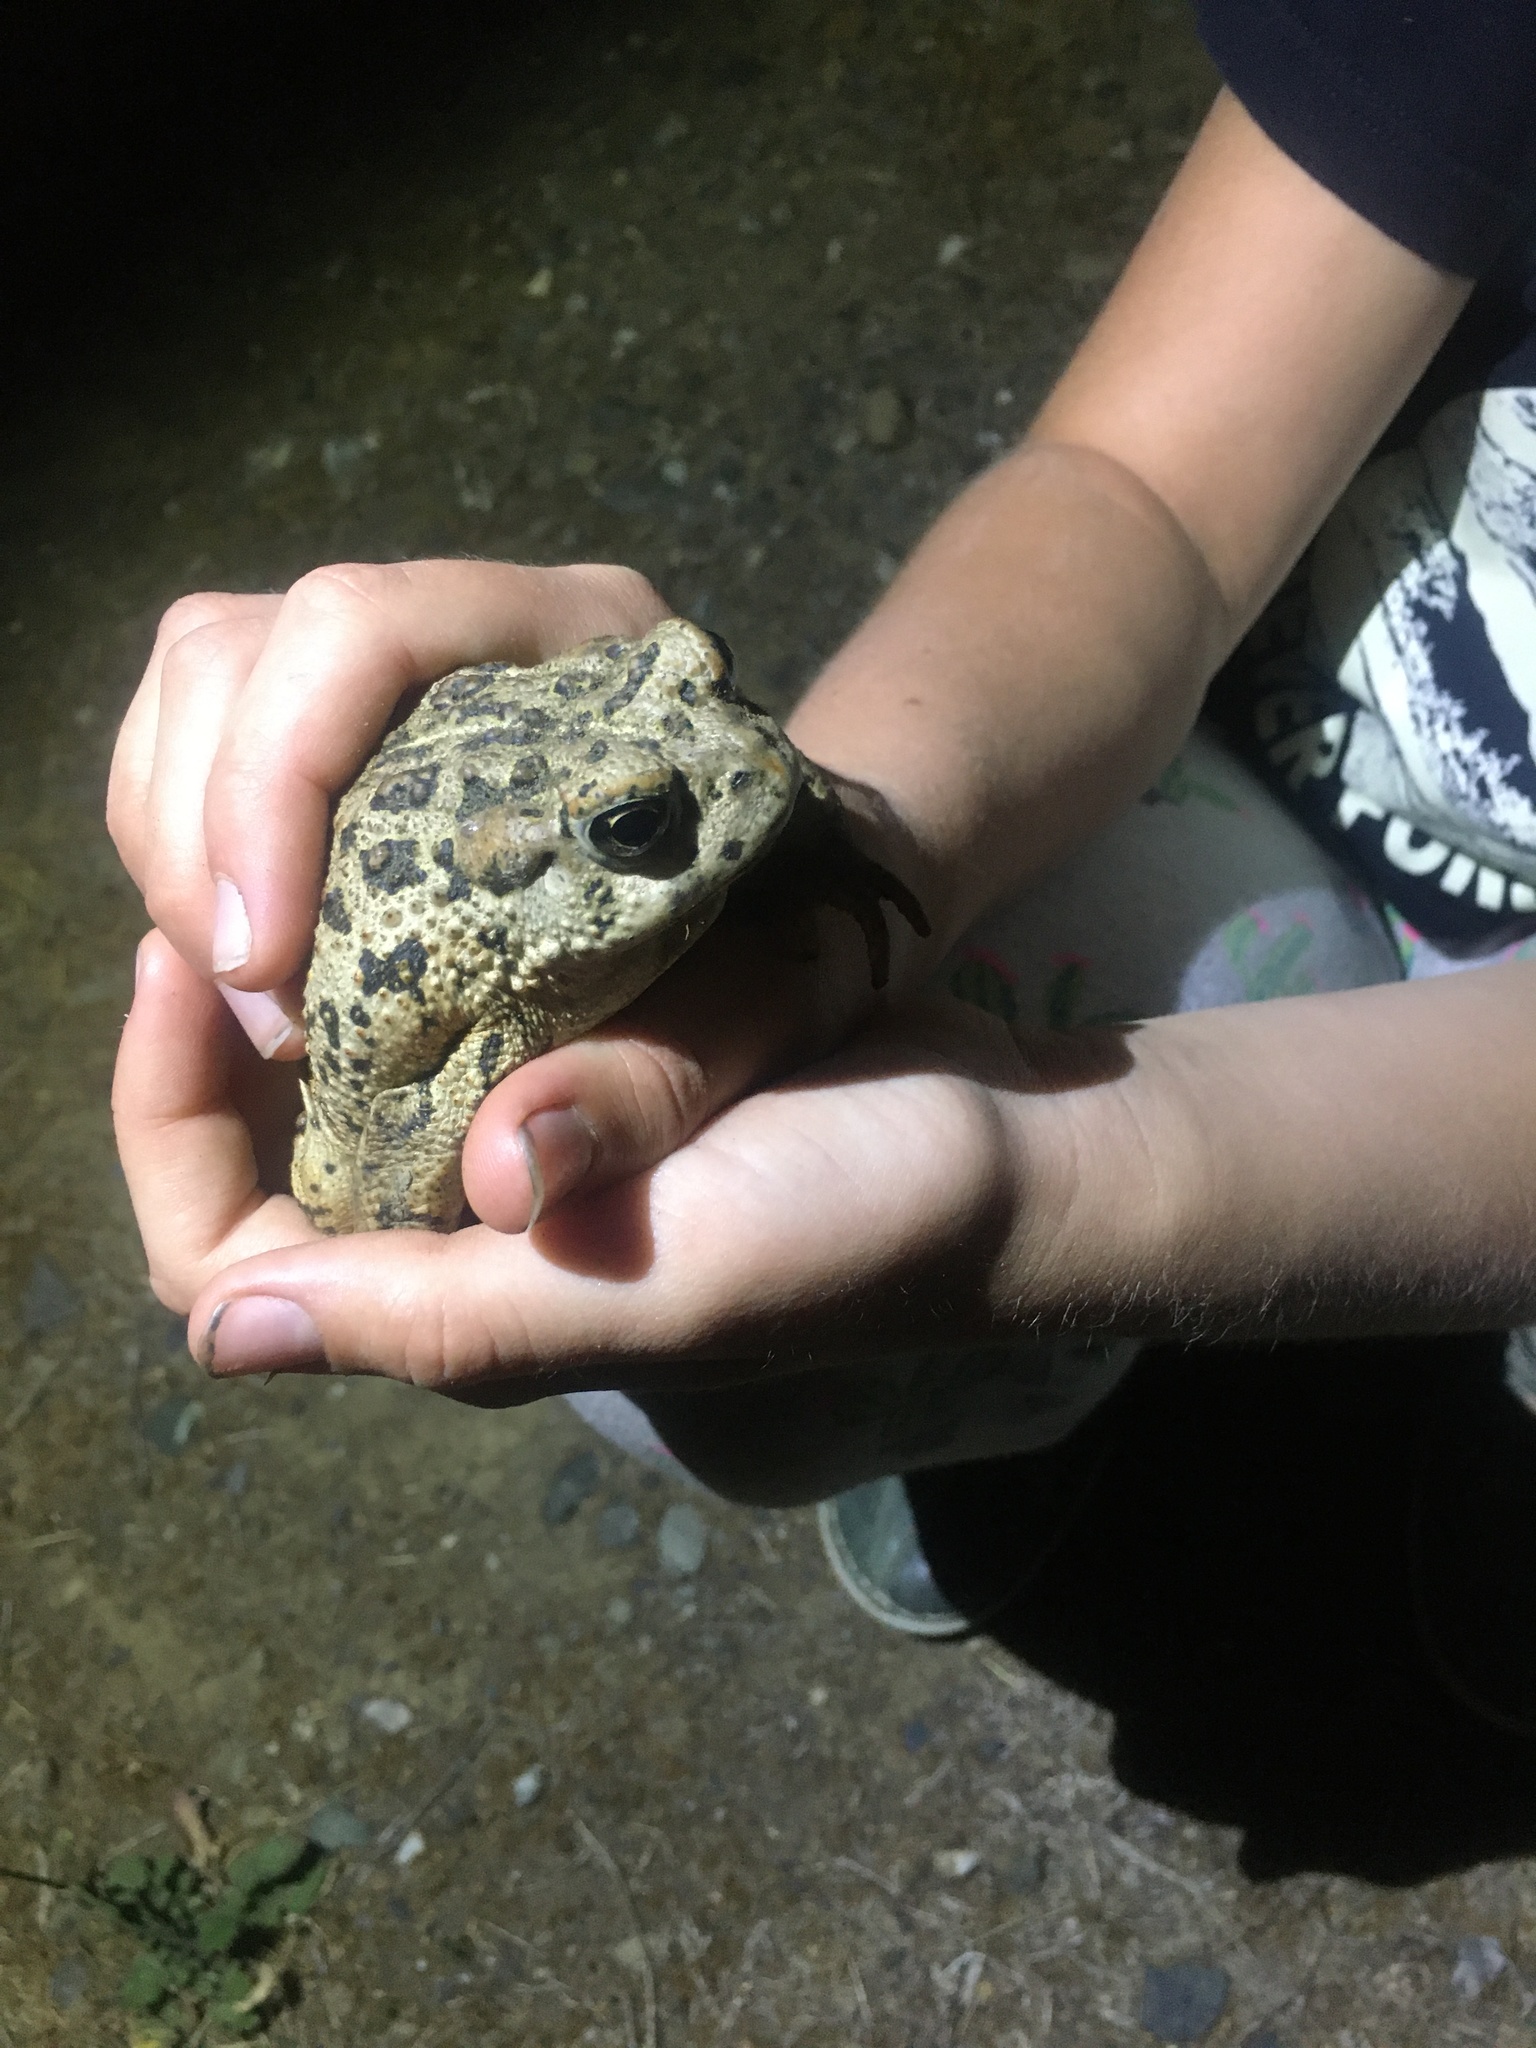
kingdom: Animalia
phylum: Chordata
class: Amphibia
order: Anura
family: Bufonidae
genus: Anaxyrus
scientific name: Anaxyrus boreas
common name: Western toad
